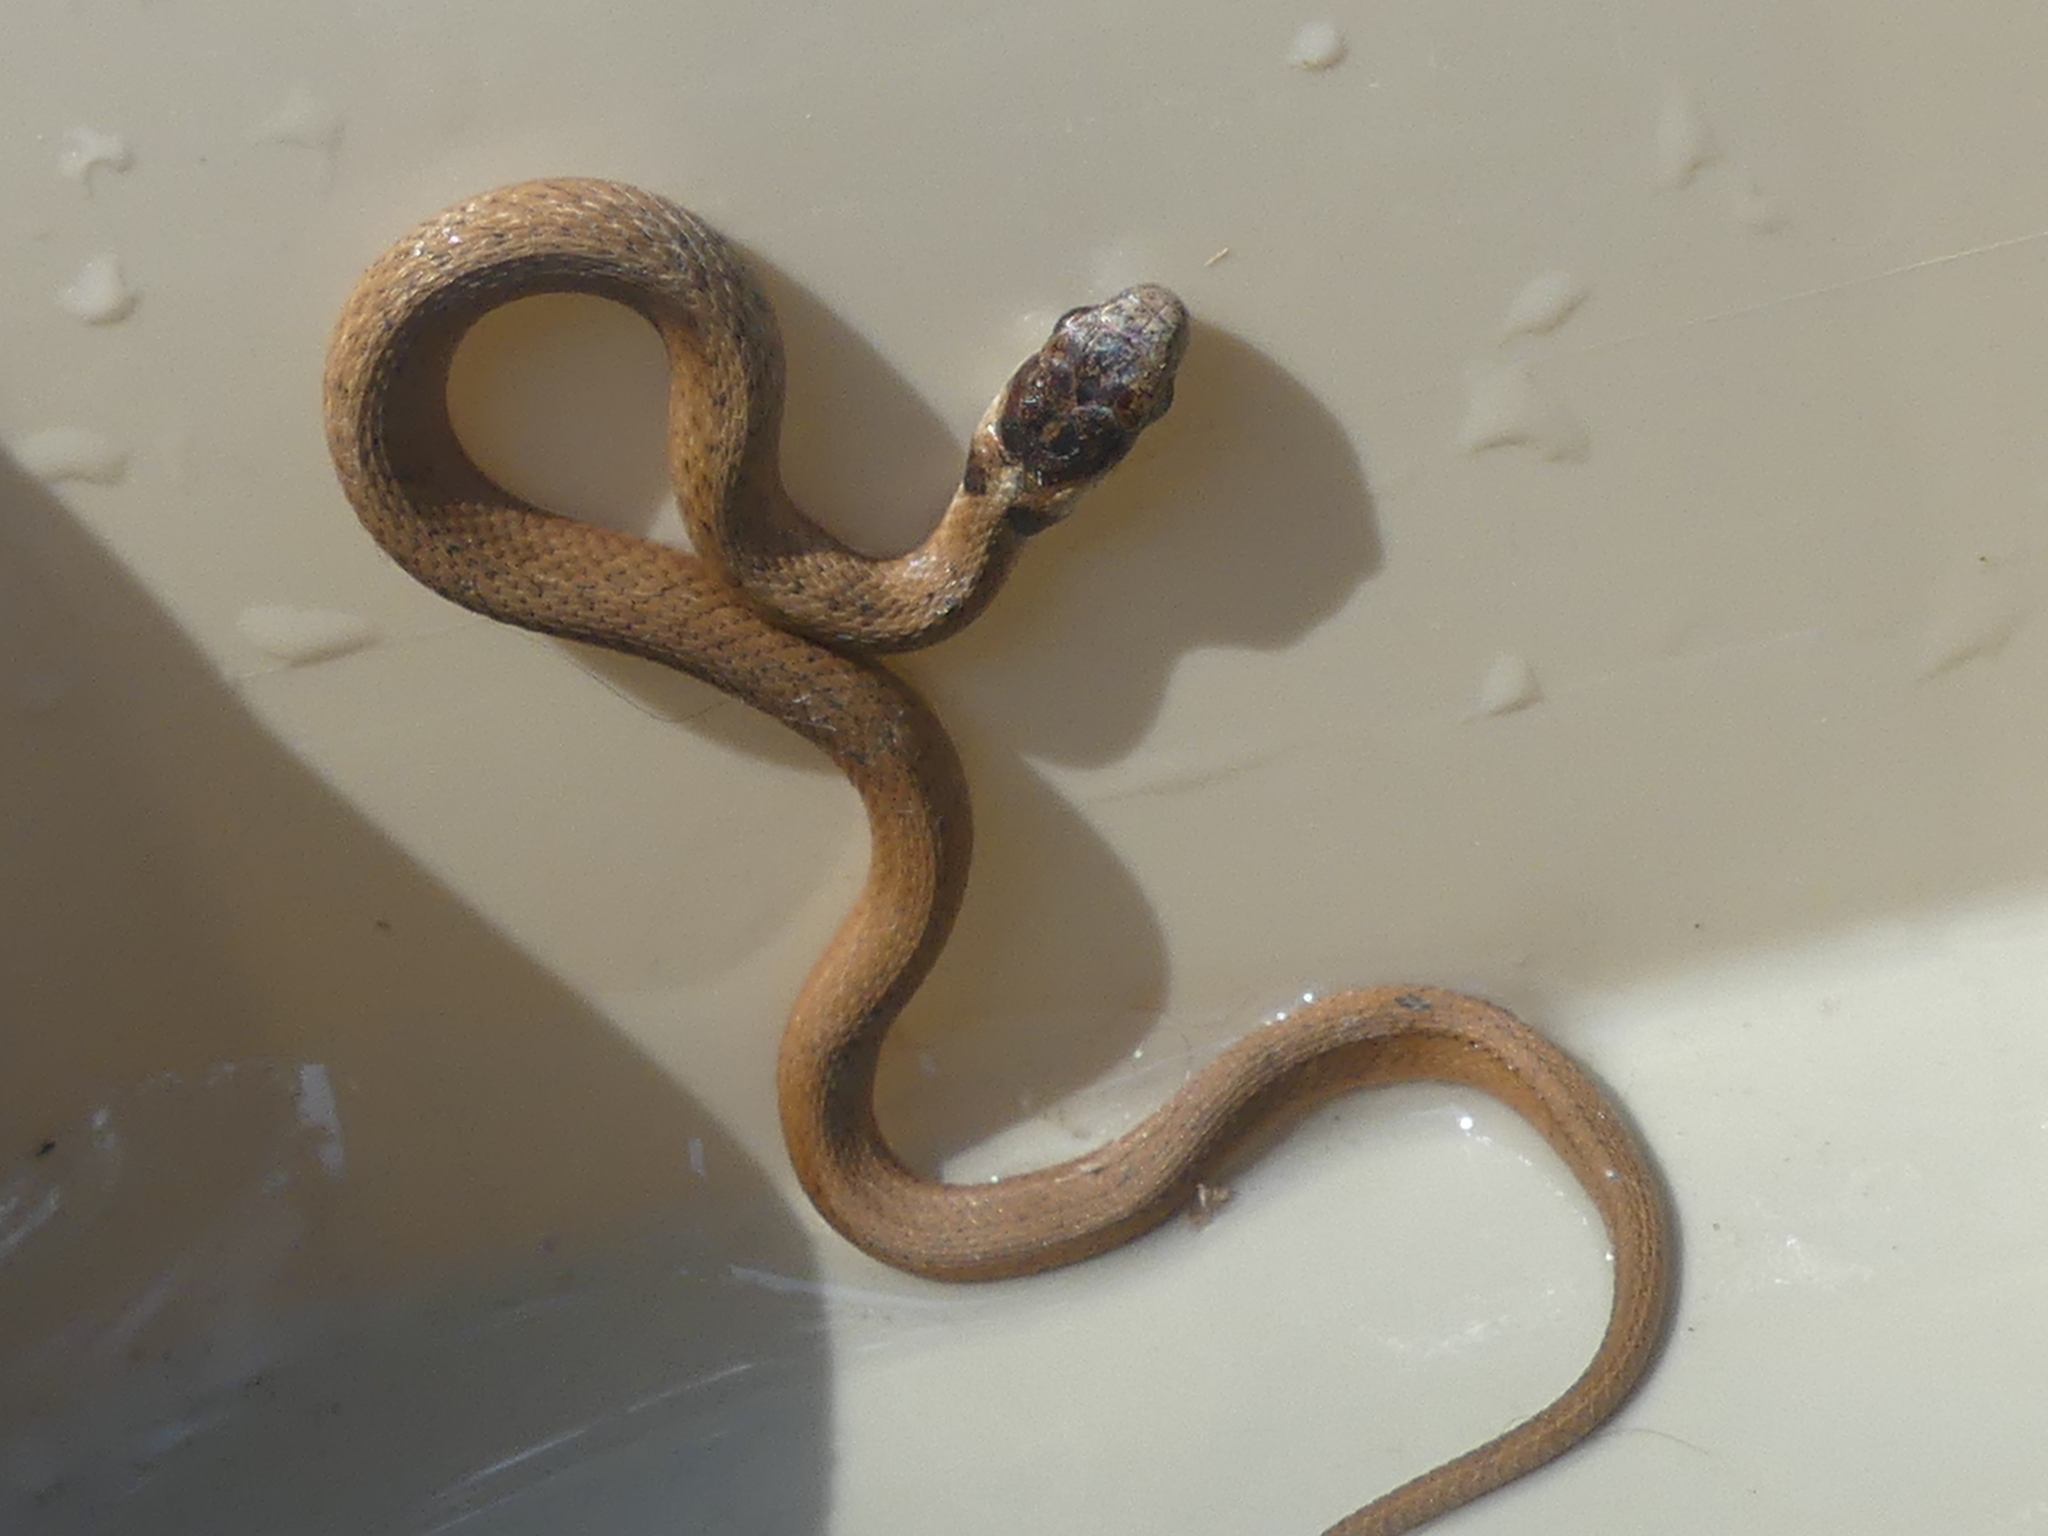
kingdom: Animalia
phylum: Chordata
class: Squamata
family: Colubridae
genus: Storeria
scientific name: Storeria dekayi
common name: (dekay’s) brown snake
